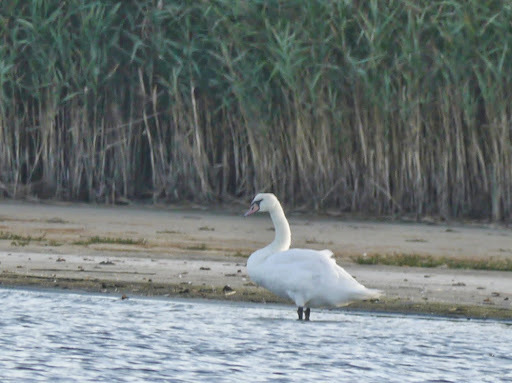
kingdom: Animalia
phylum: Chordata
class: Aves
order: Anseriformes
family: Anatidae
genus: Cygnus
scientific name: Cygnus olor
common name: Mute swan
